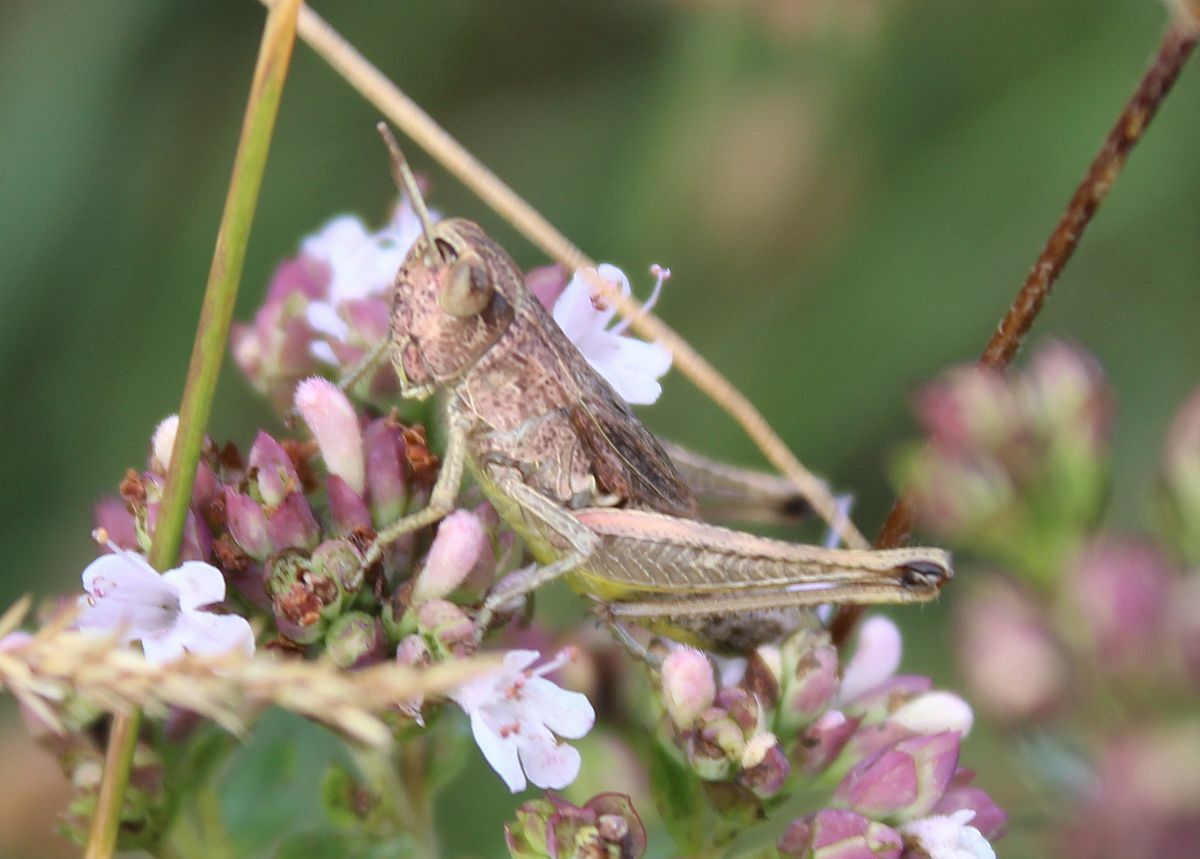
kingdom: Animalia
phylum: Arthropoda
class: Insecta
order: Orthoptera
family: Acrididae
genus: Pseudochorthippus
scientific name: Pseudochorthippus parallelus
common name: Meadow grasshopper
